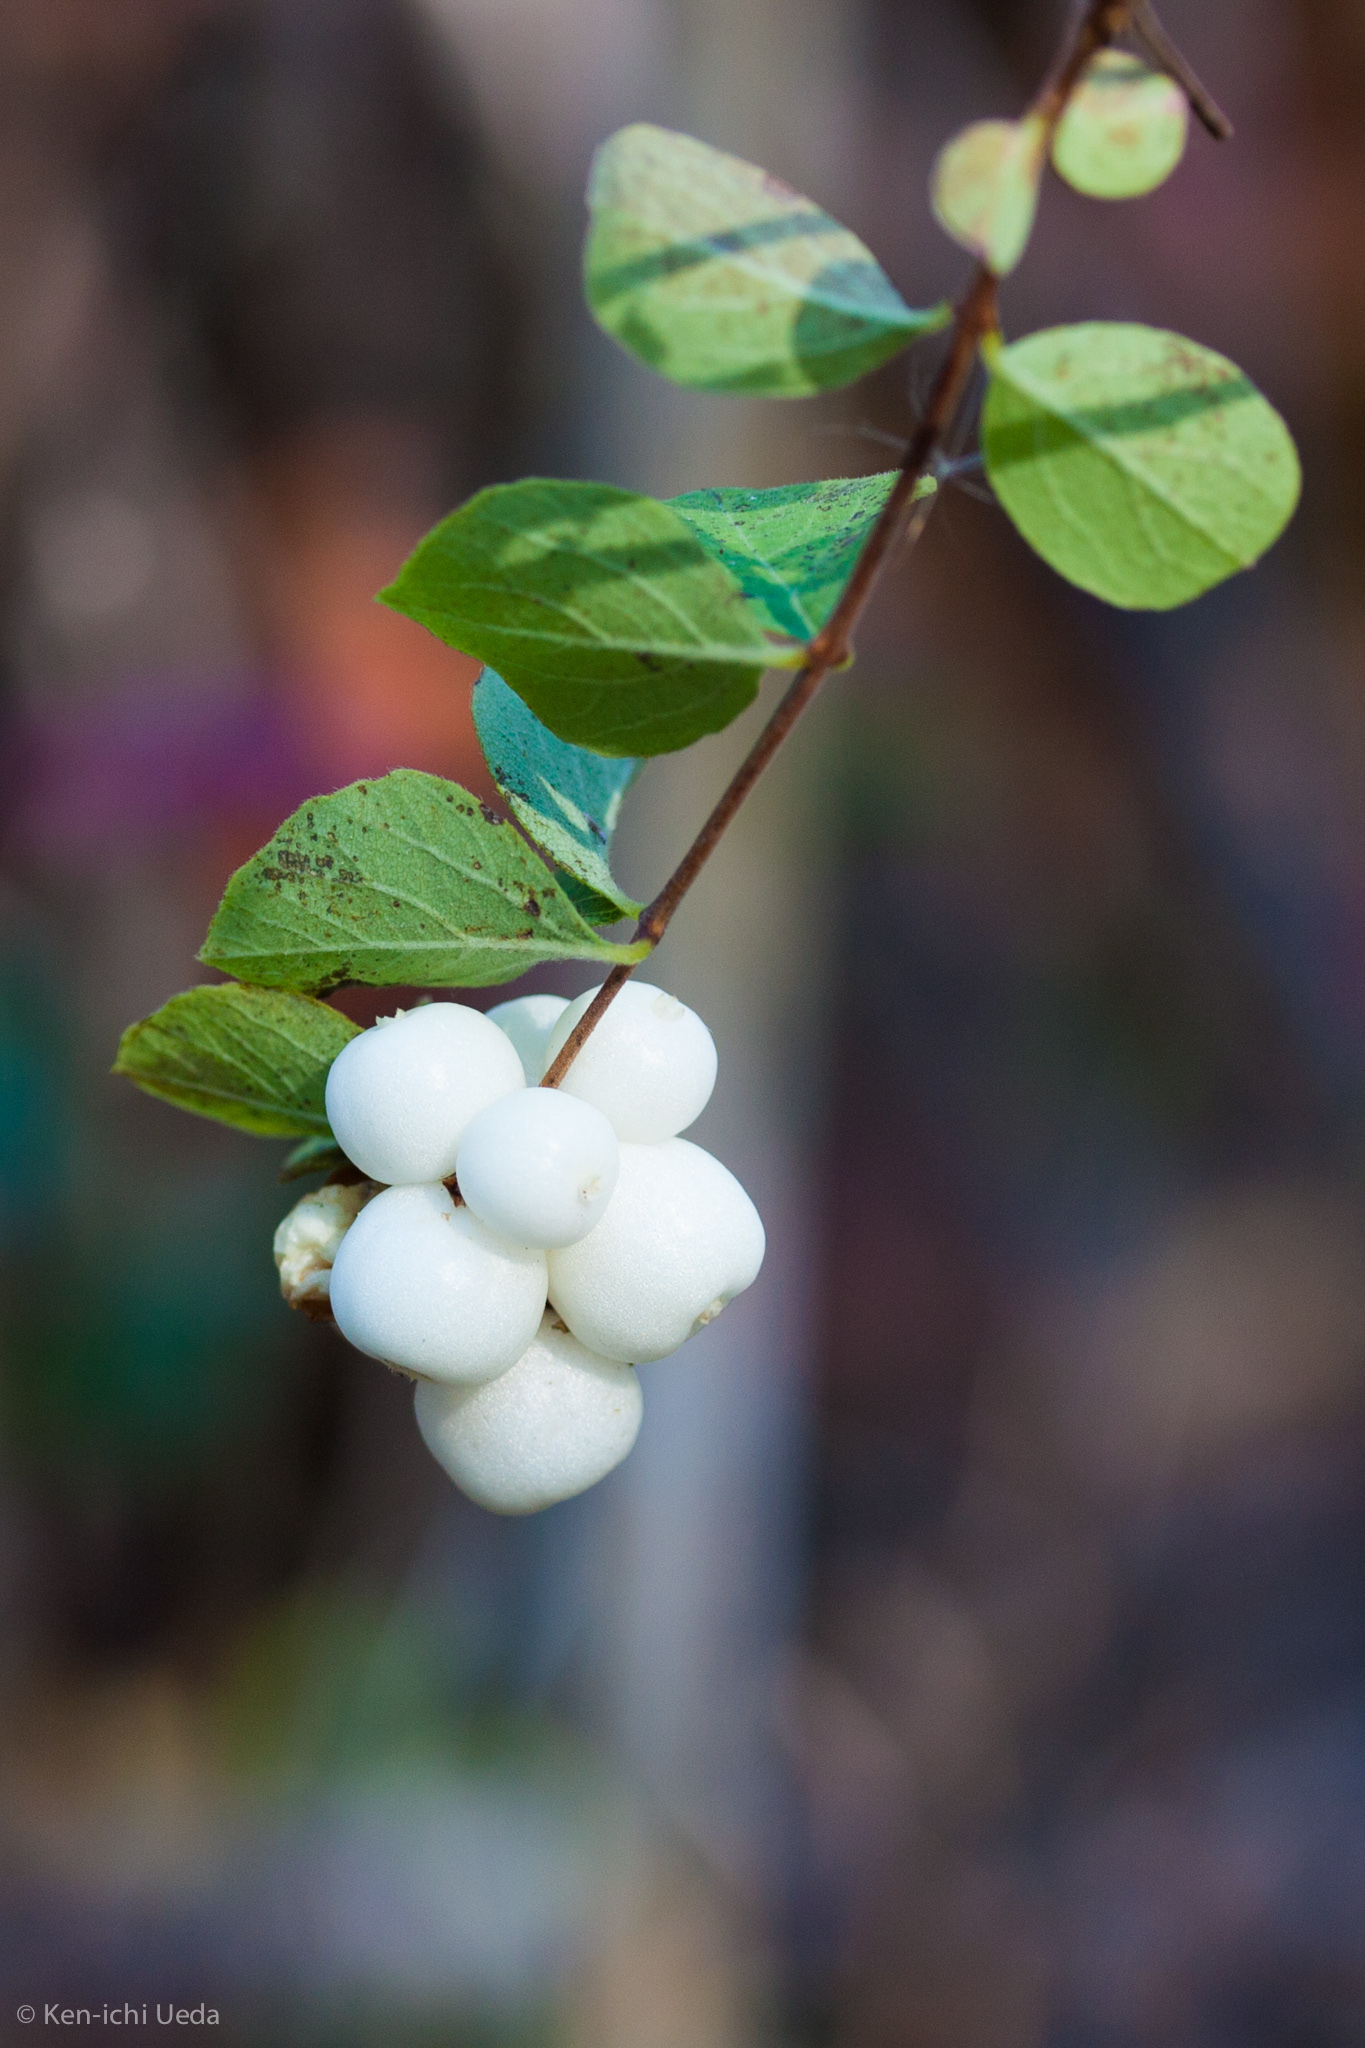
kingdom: Plantae
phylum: Tracheophyta
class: Magnoliopsida
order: Dipsacales
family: Caprifoliaceae
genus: Symphoricarpos
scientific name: Symphoricarpos albus
